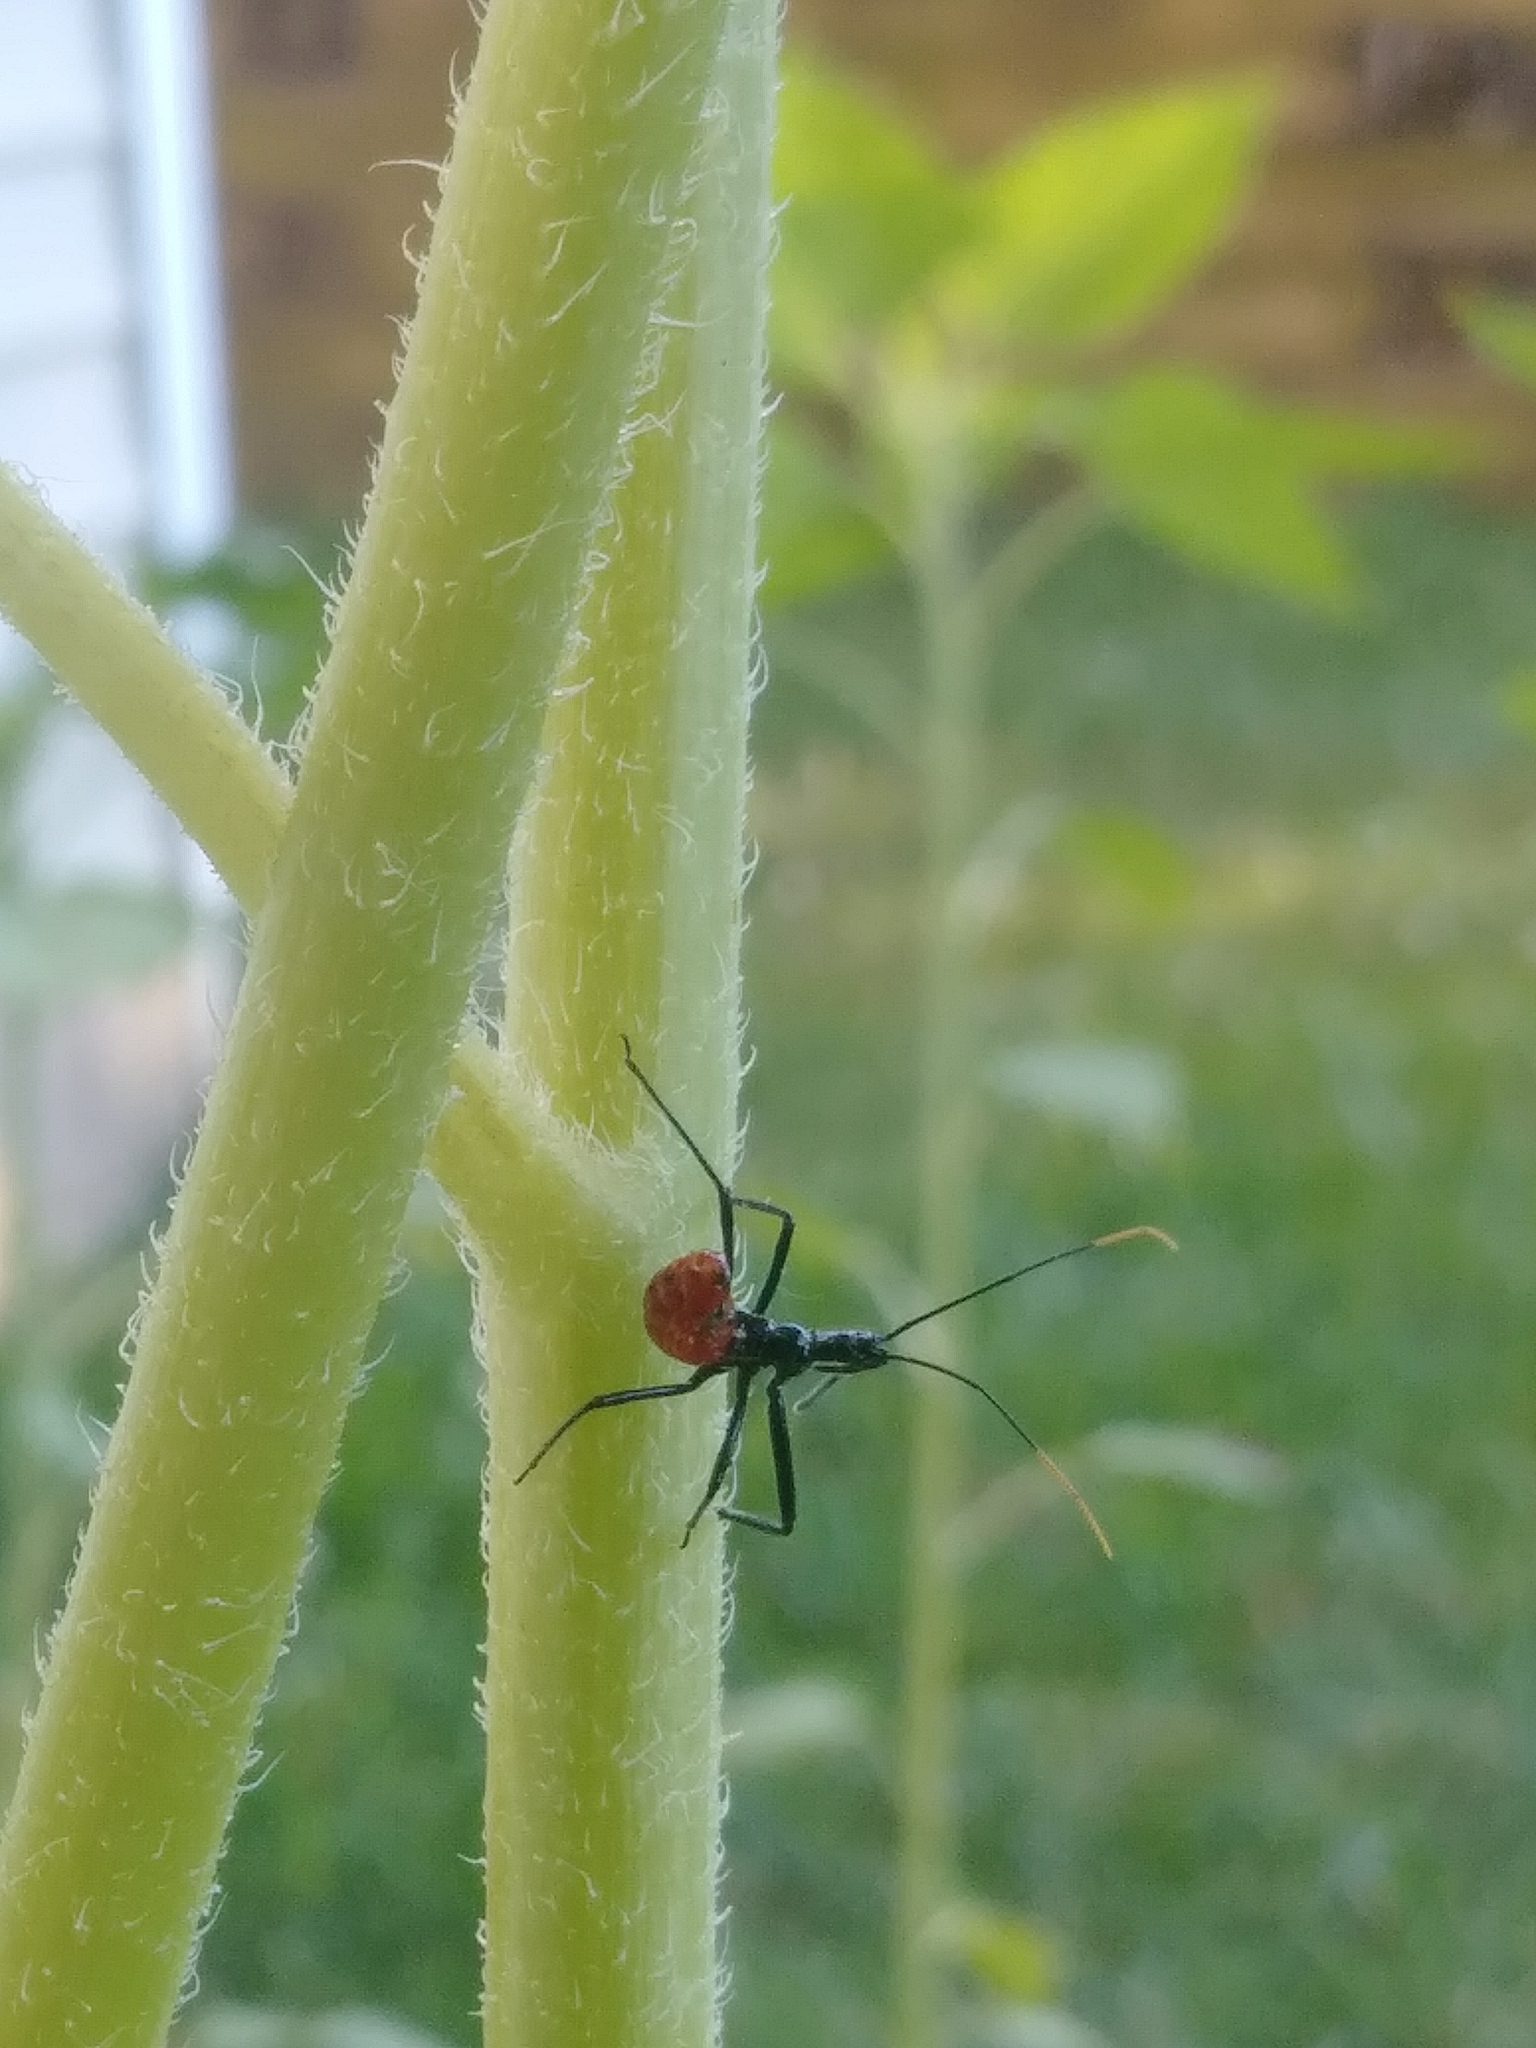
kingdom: Animalia
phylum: Arthropoda
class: Insecta
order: Hemiptera
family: Reduviidae
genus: Arilus
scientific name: Arilus cristatus
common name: North american wheel bug
